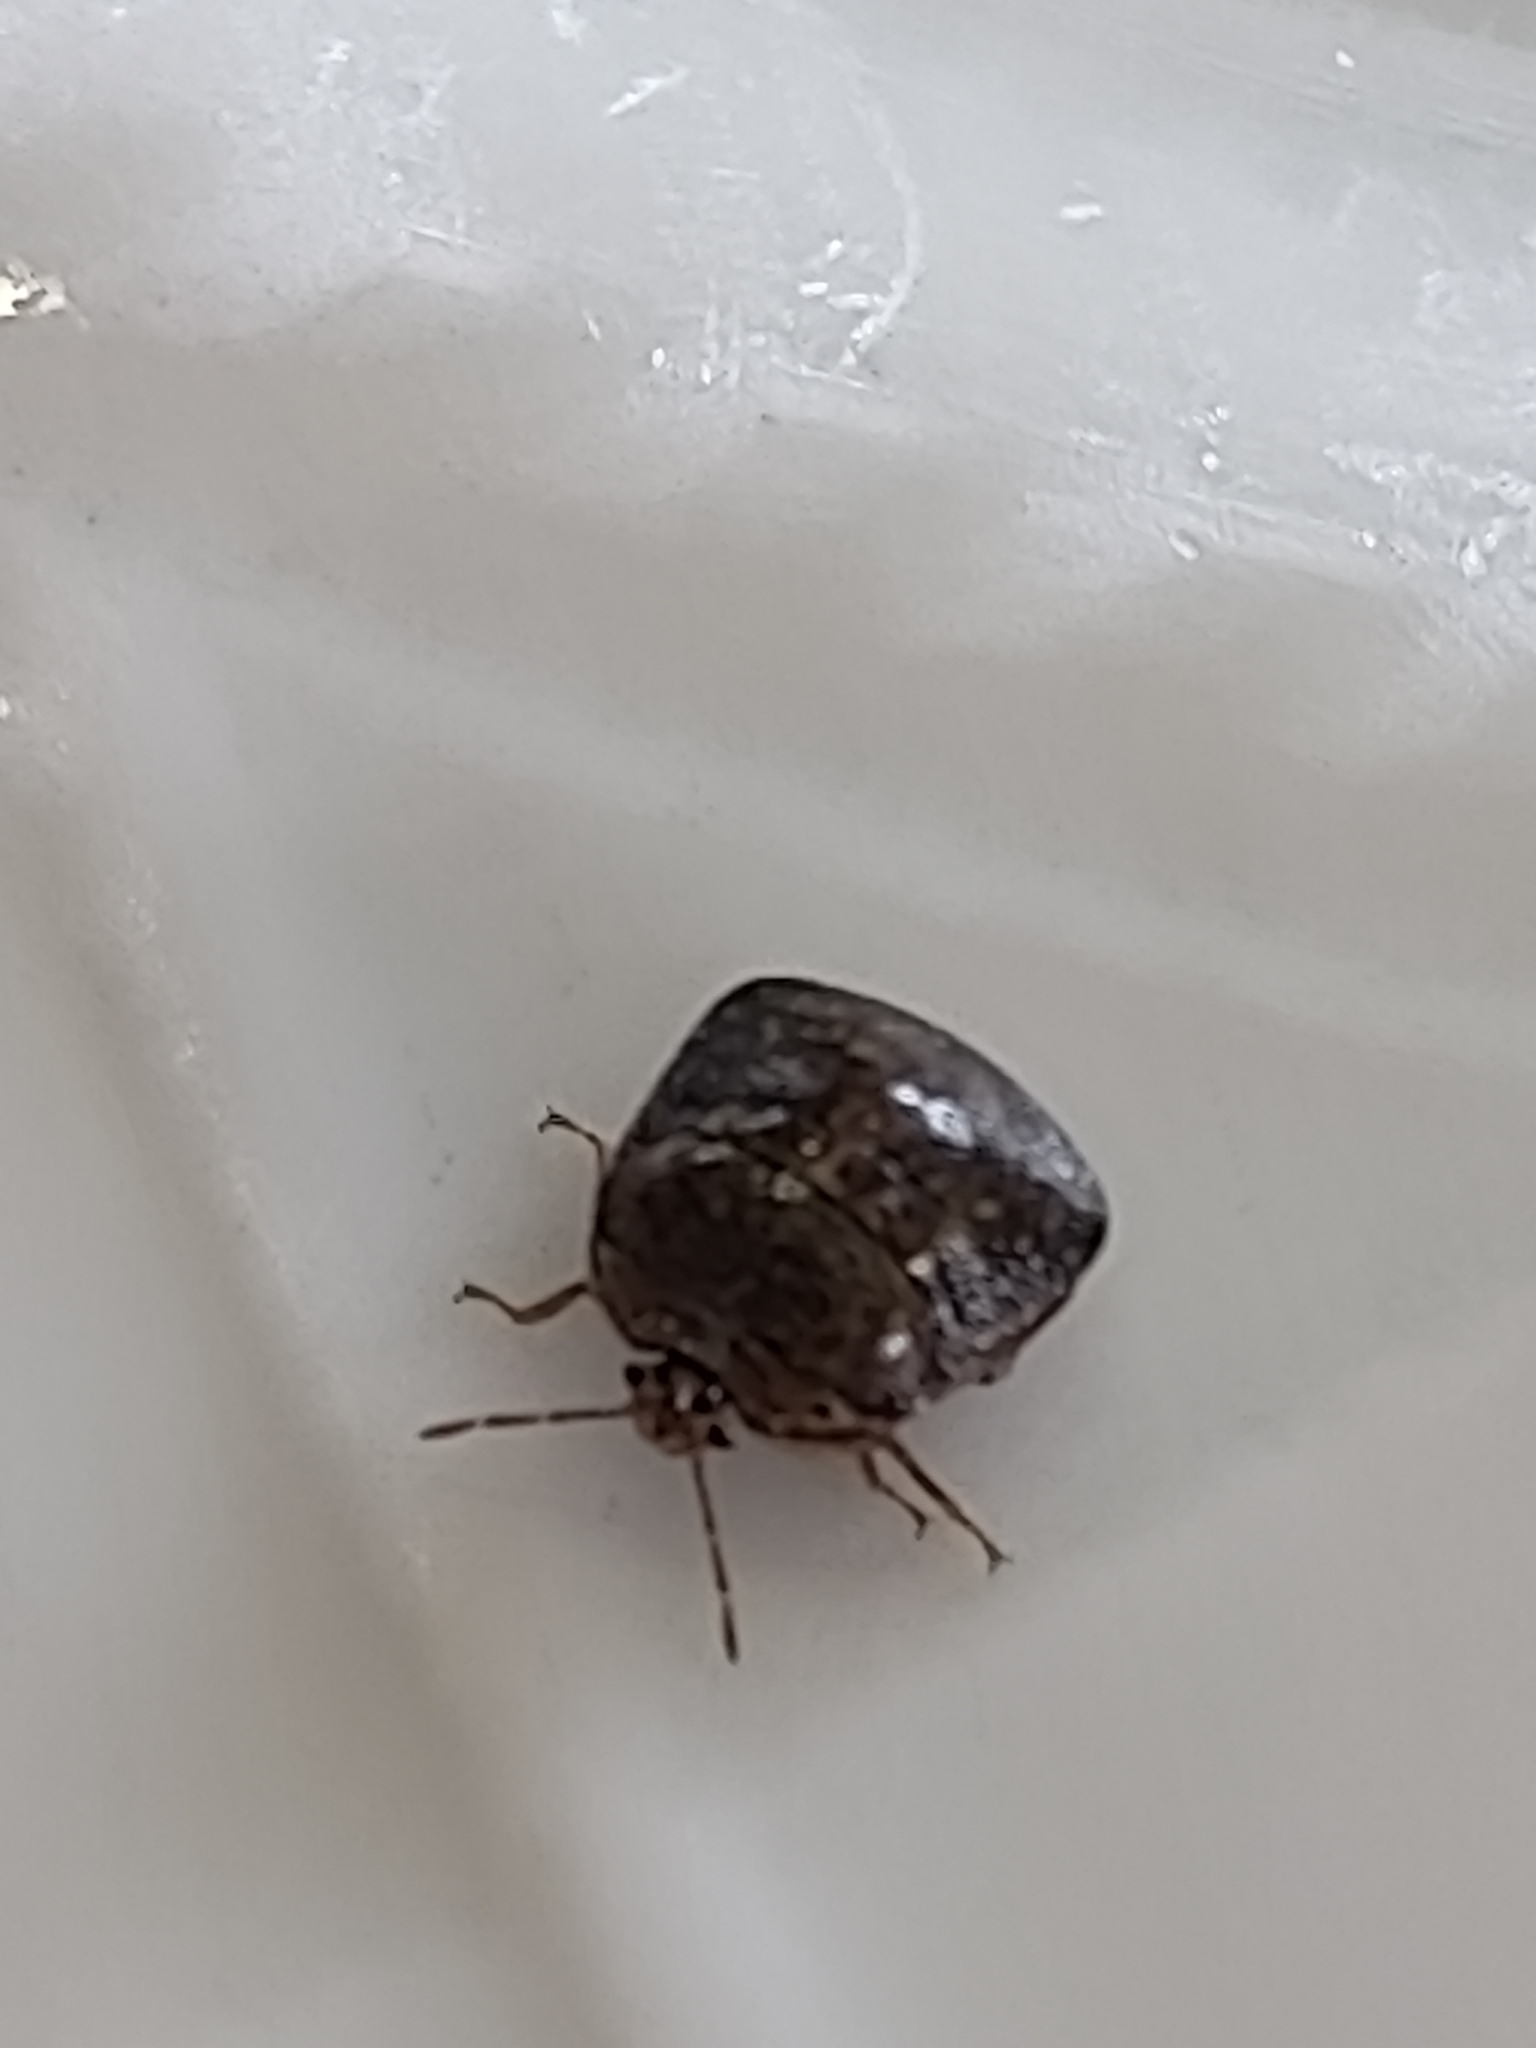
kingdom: Animalia
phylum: Arthropoda
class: Insecta
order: Hemiptera
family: Plataspidae
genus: Megacopta
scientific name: Megacopta cribraria
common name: Bean plataspid
